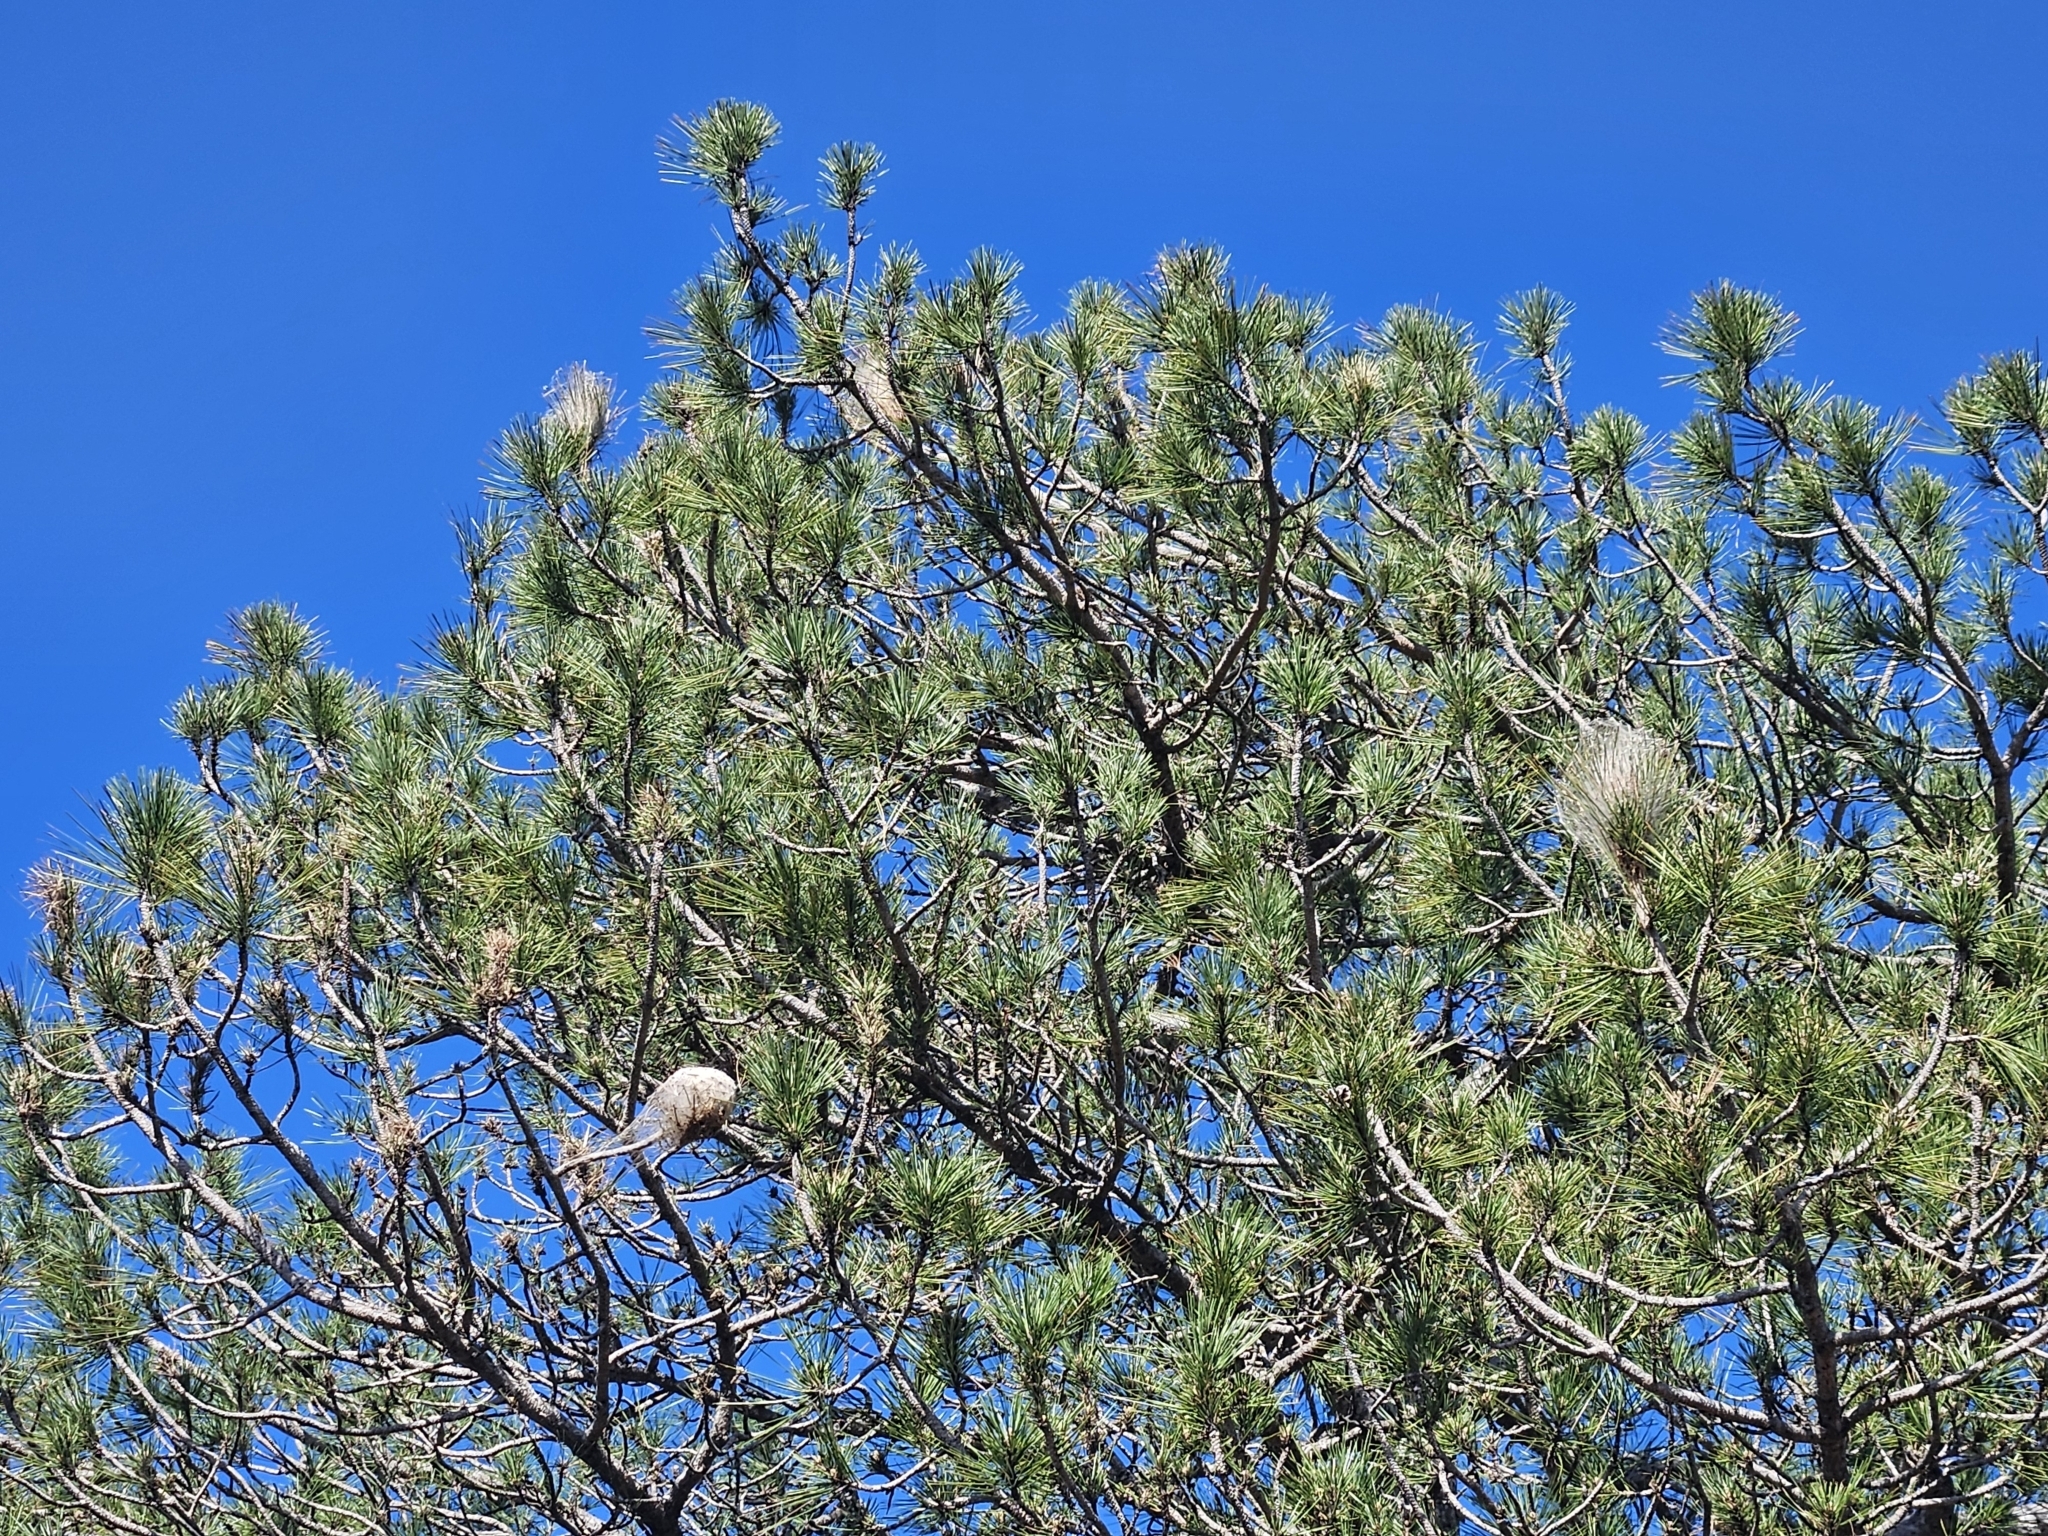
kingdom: Animalia
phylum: Arthropoda
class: Insecta
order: Lepidoptera
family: Notodontidae
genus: Thaumetopoea
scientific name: Thaumetopoea pityocampa
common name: Pine processionary
